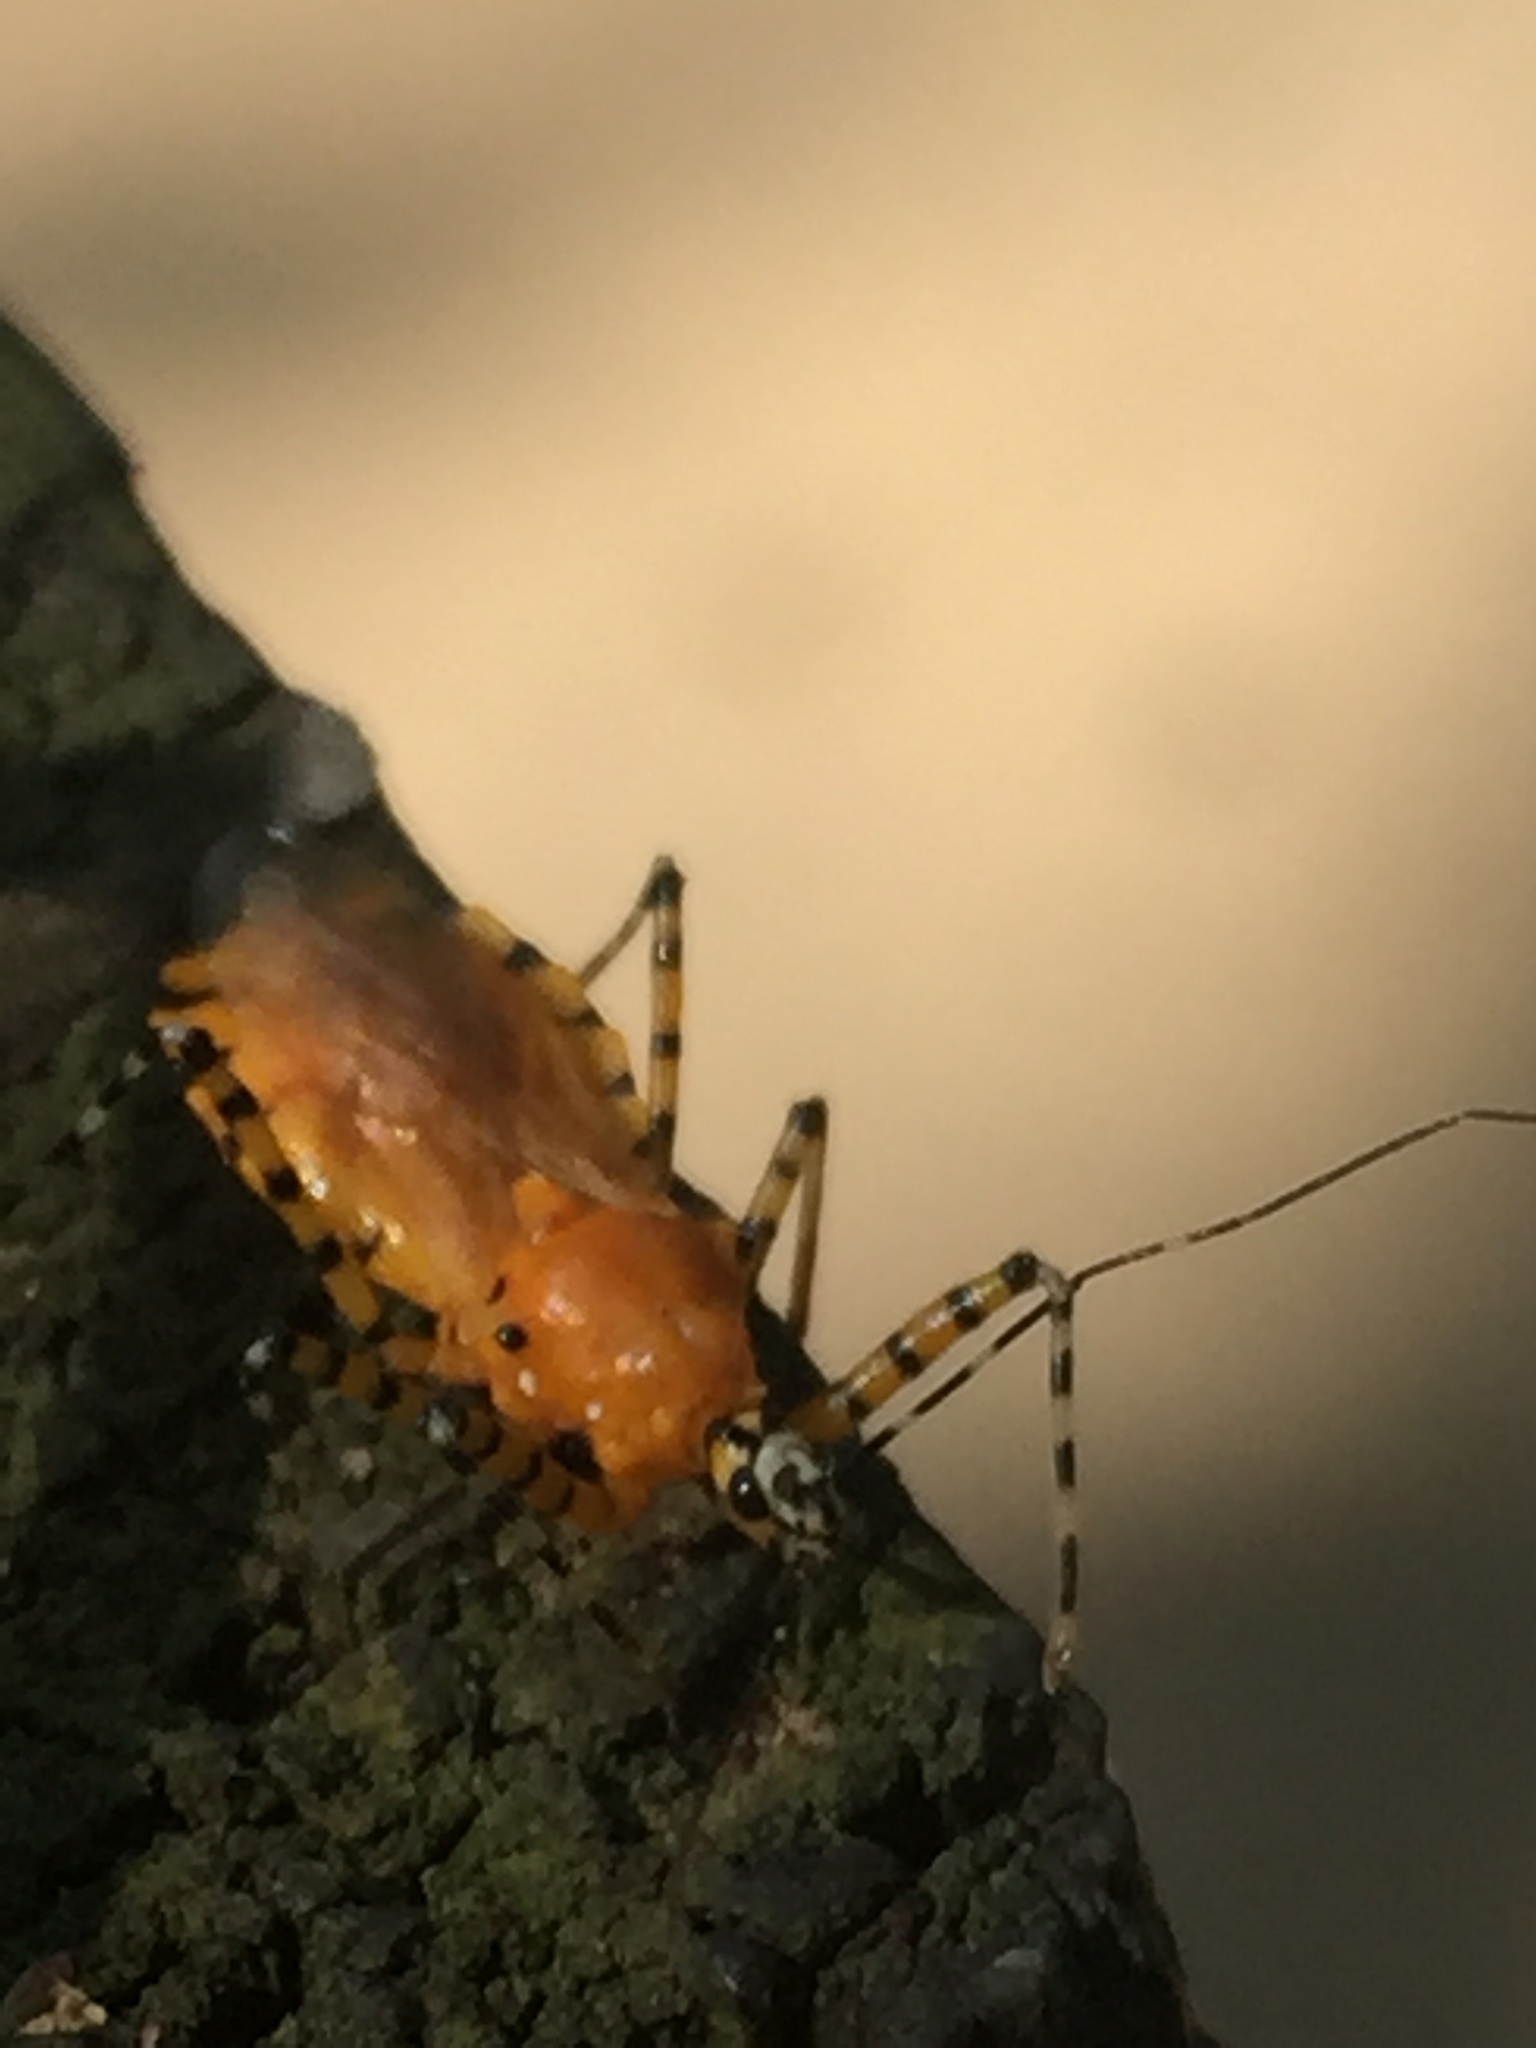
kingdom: Animalia
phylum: Arthropoda
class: Insecta
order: Hemiptera
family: Reduviidae
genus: Pselliopus
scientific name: Pselliopus barberi
